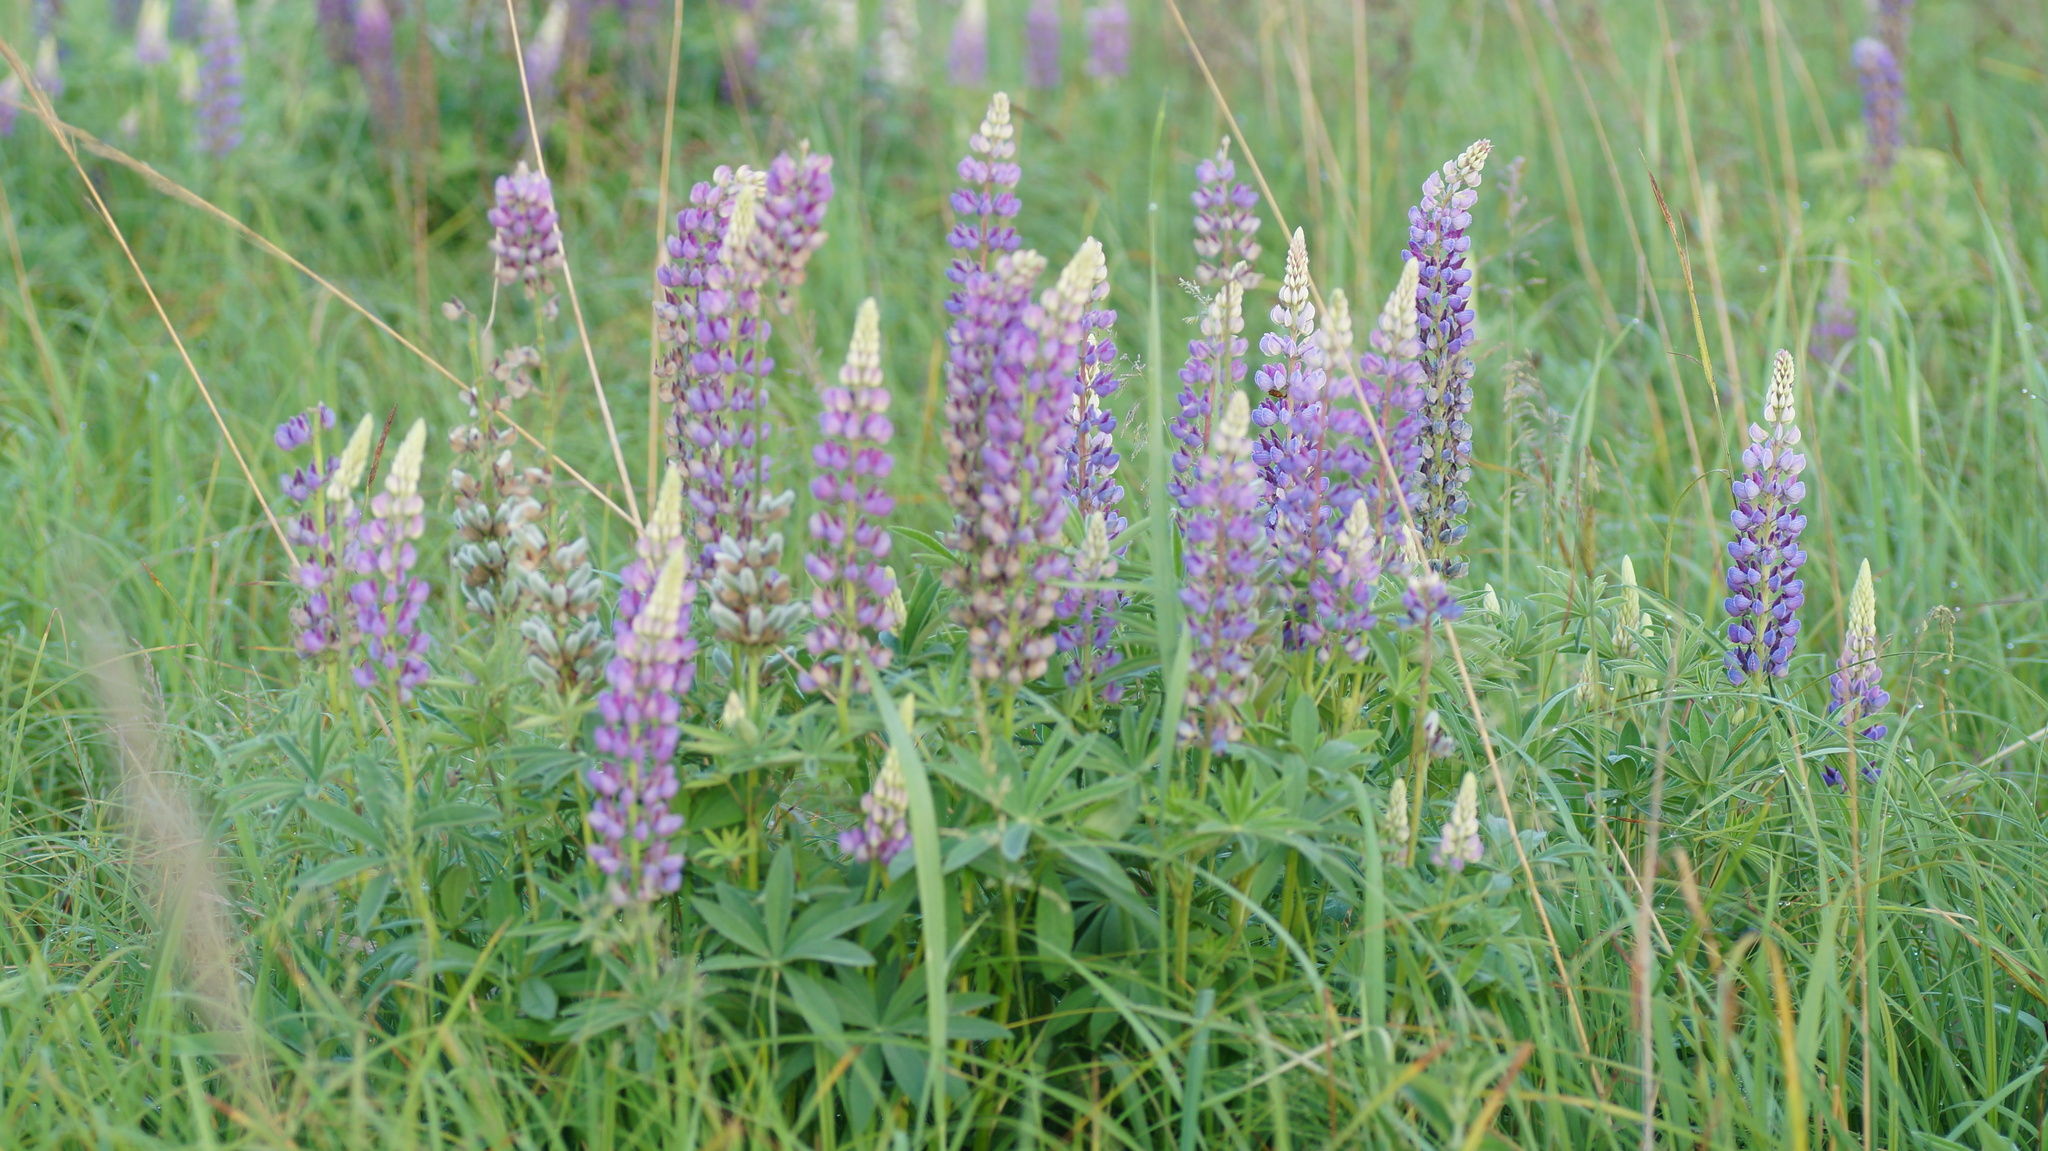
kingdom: Plantae
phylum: Tracheophyta
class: Magnoliopsida
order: Fabales
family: Fabaceae
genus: Lupinus
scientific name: Lupinus polyphyllus
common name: Garden lupin
